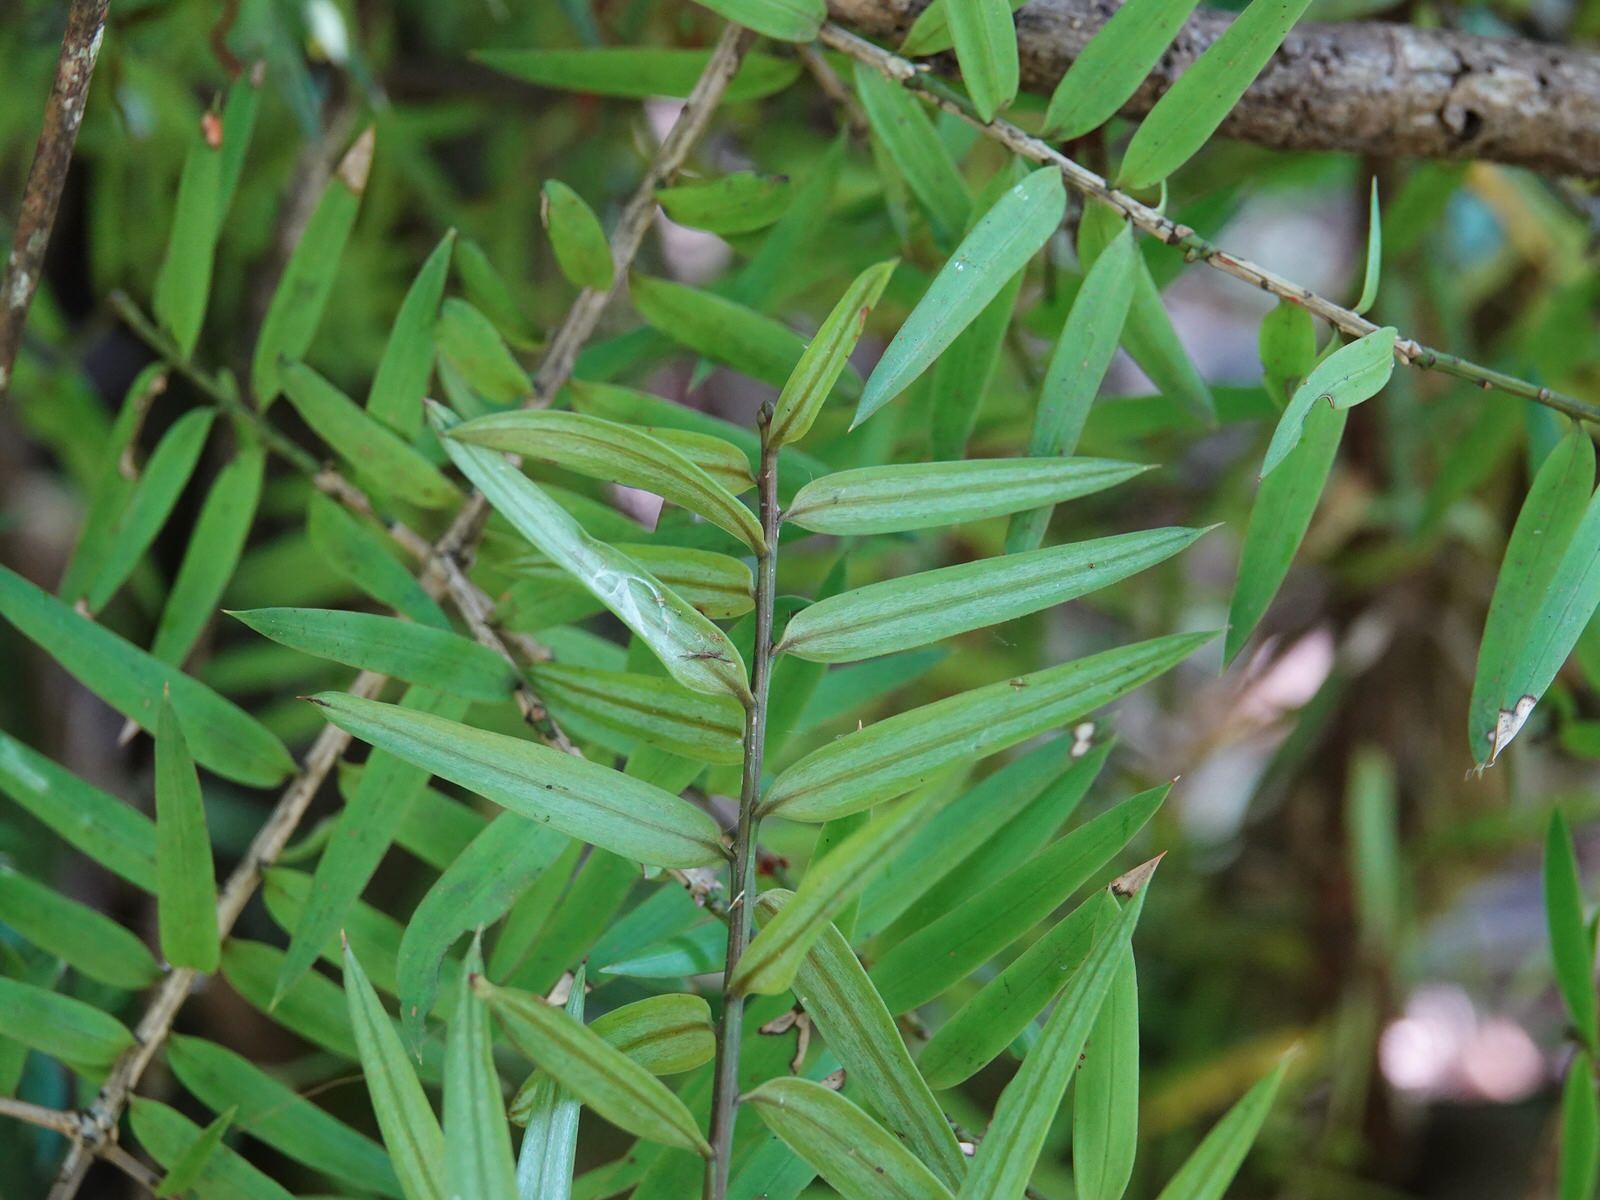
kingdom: Plantae
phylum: Tracheophyta
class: Pinopsida
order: Pinales
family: Podocarpaceae
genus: Podocarpus
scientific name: Podocarpus laetus
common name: Hall's totara
